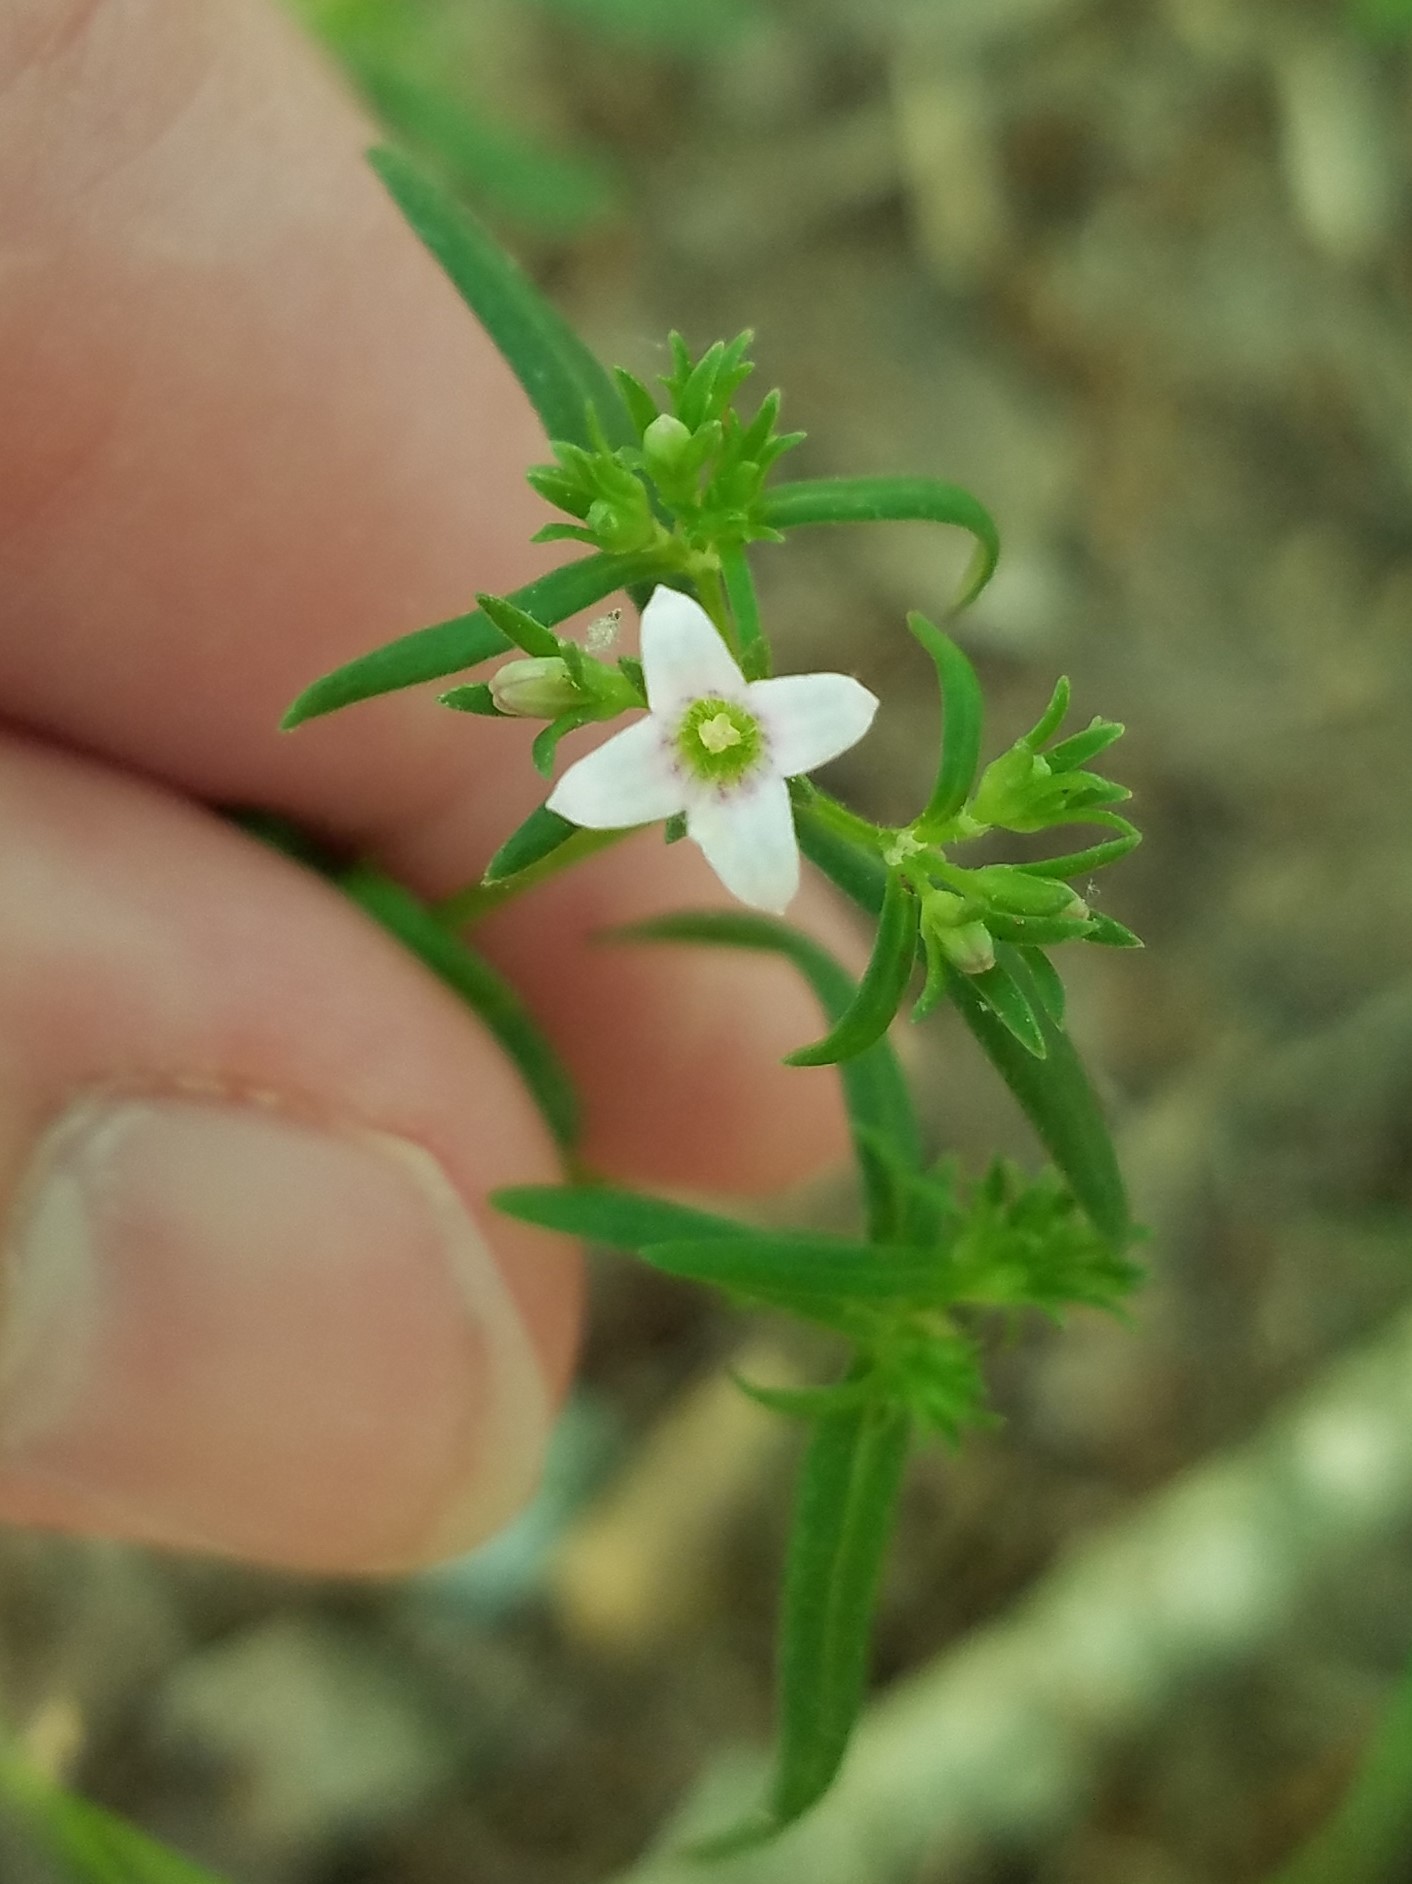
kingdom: Plantae
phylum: Tracheophyta
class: Magnoliopsida
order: Gentianales
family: Rubiaceae
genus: Houstonia
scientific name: Houstonia longifolia
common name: Long-leaved bluets
